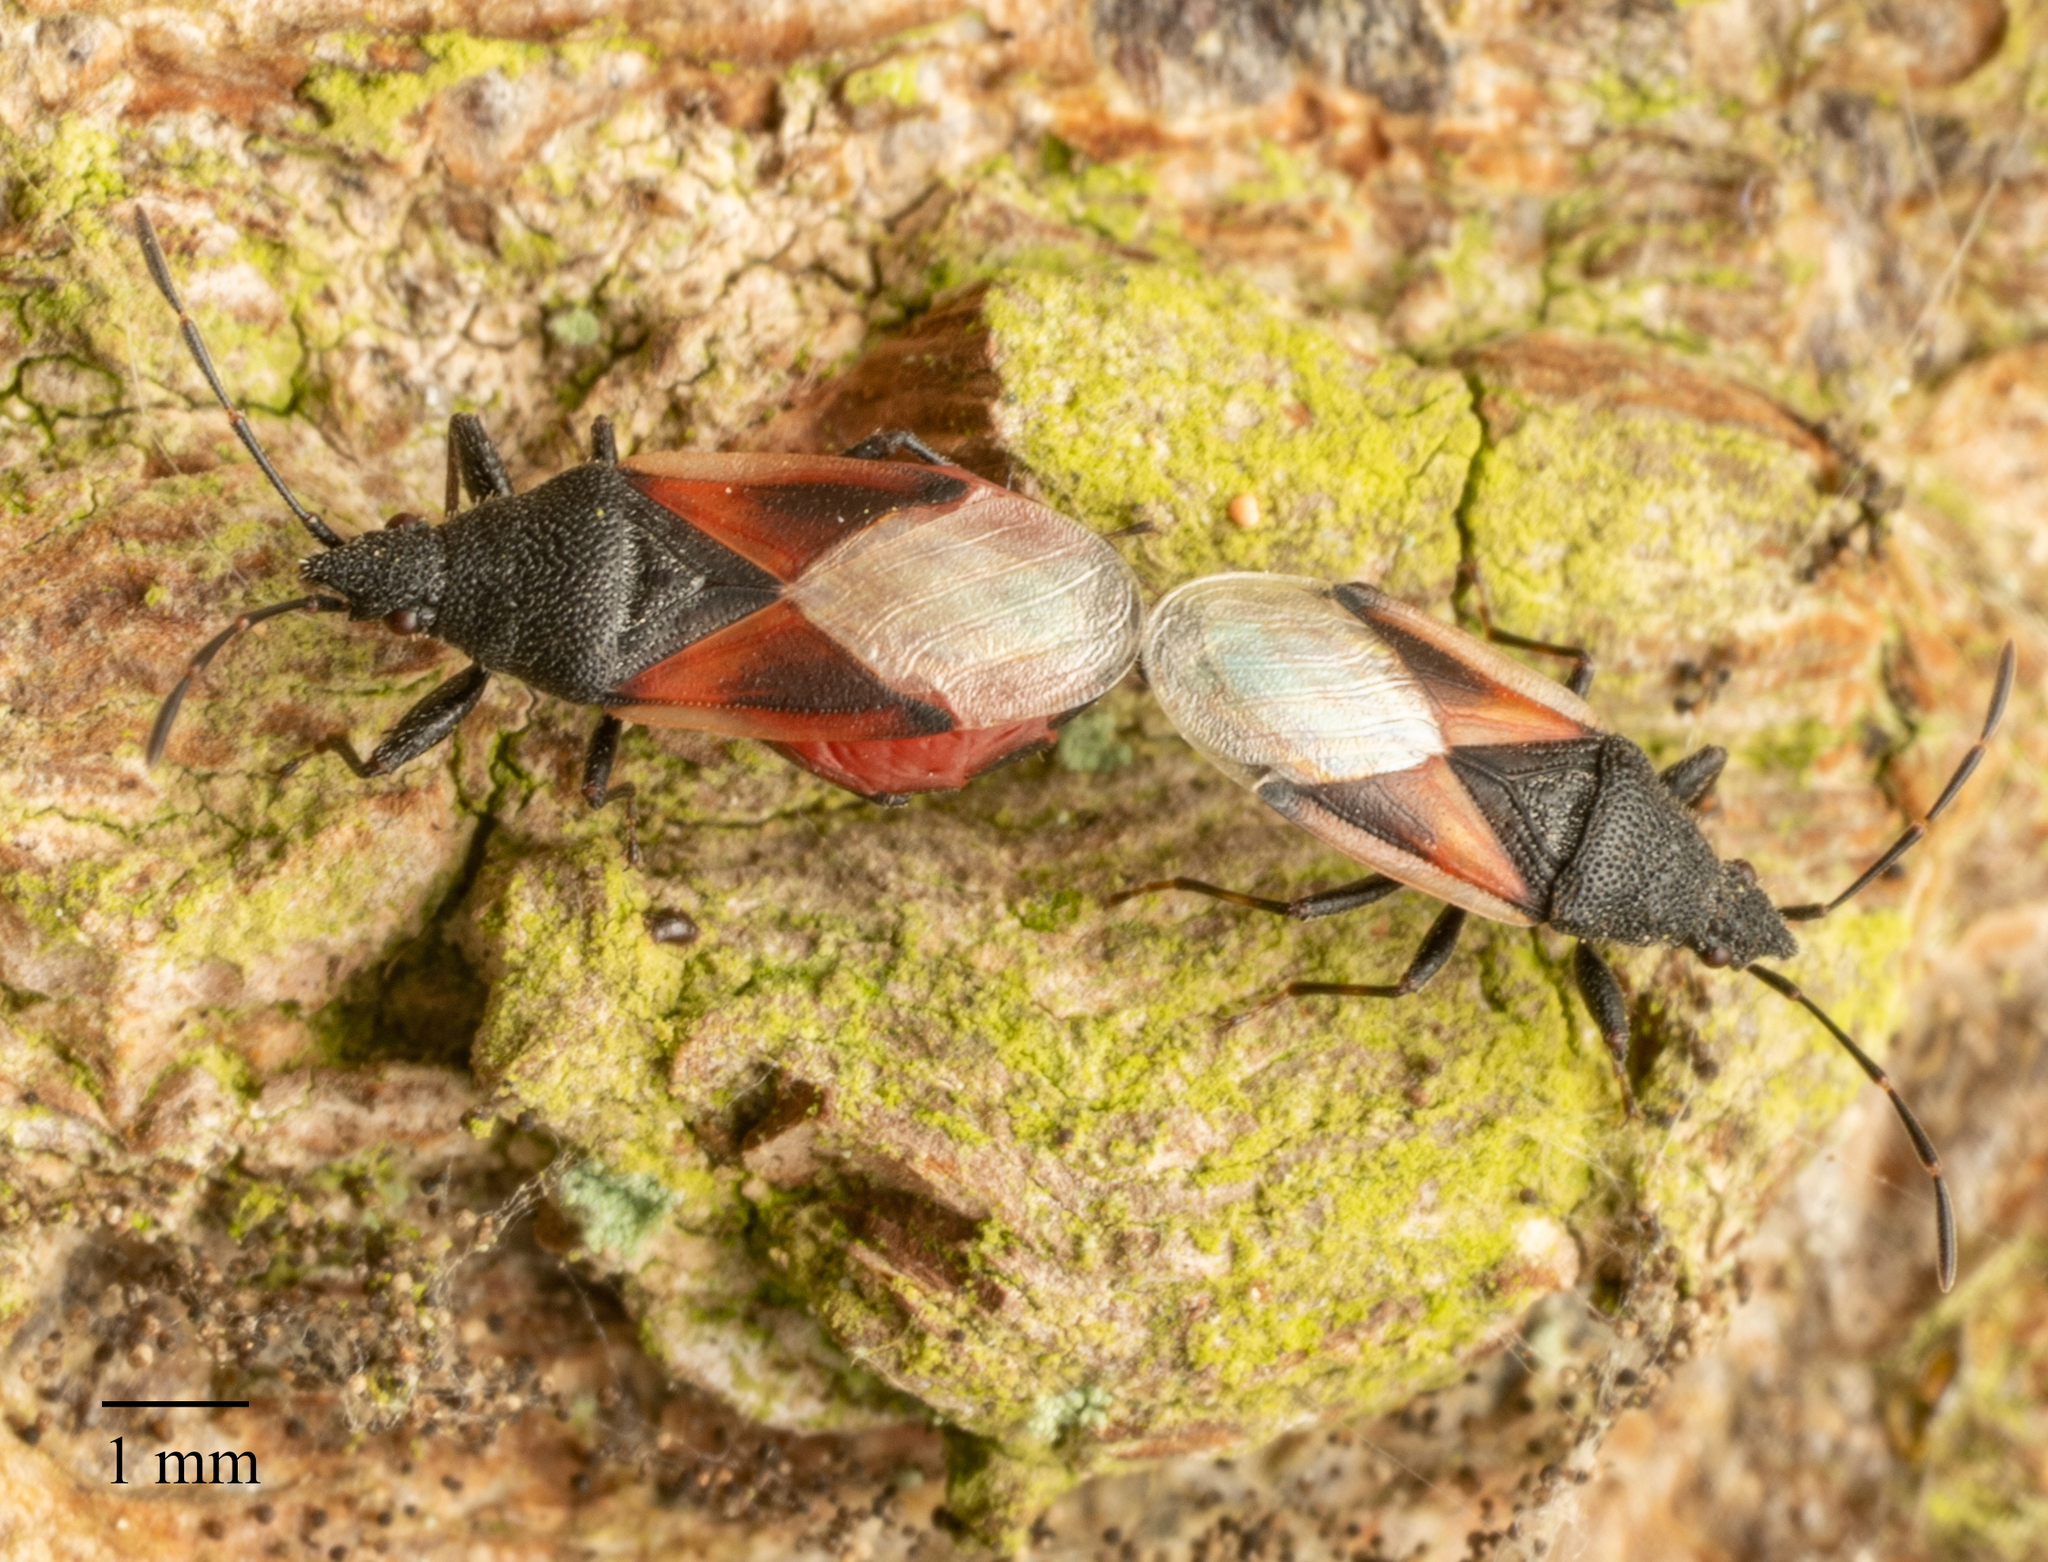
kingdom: Animalia
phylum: Arthropoda
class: Insecta
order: Hemiptera
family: Oxycarenidae
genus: Oxycarenus
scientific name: Oxycarenus lavaterae
